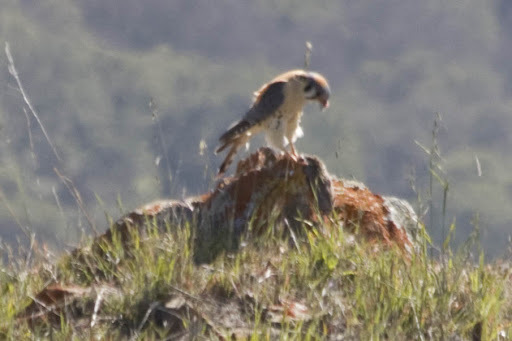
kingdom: Animalia
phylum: Chordata
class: Aves
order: Falconiformes
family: Falconidae
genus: Falco
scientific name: Falco sparverius
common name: American kestrel
